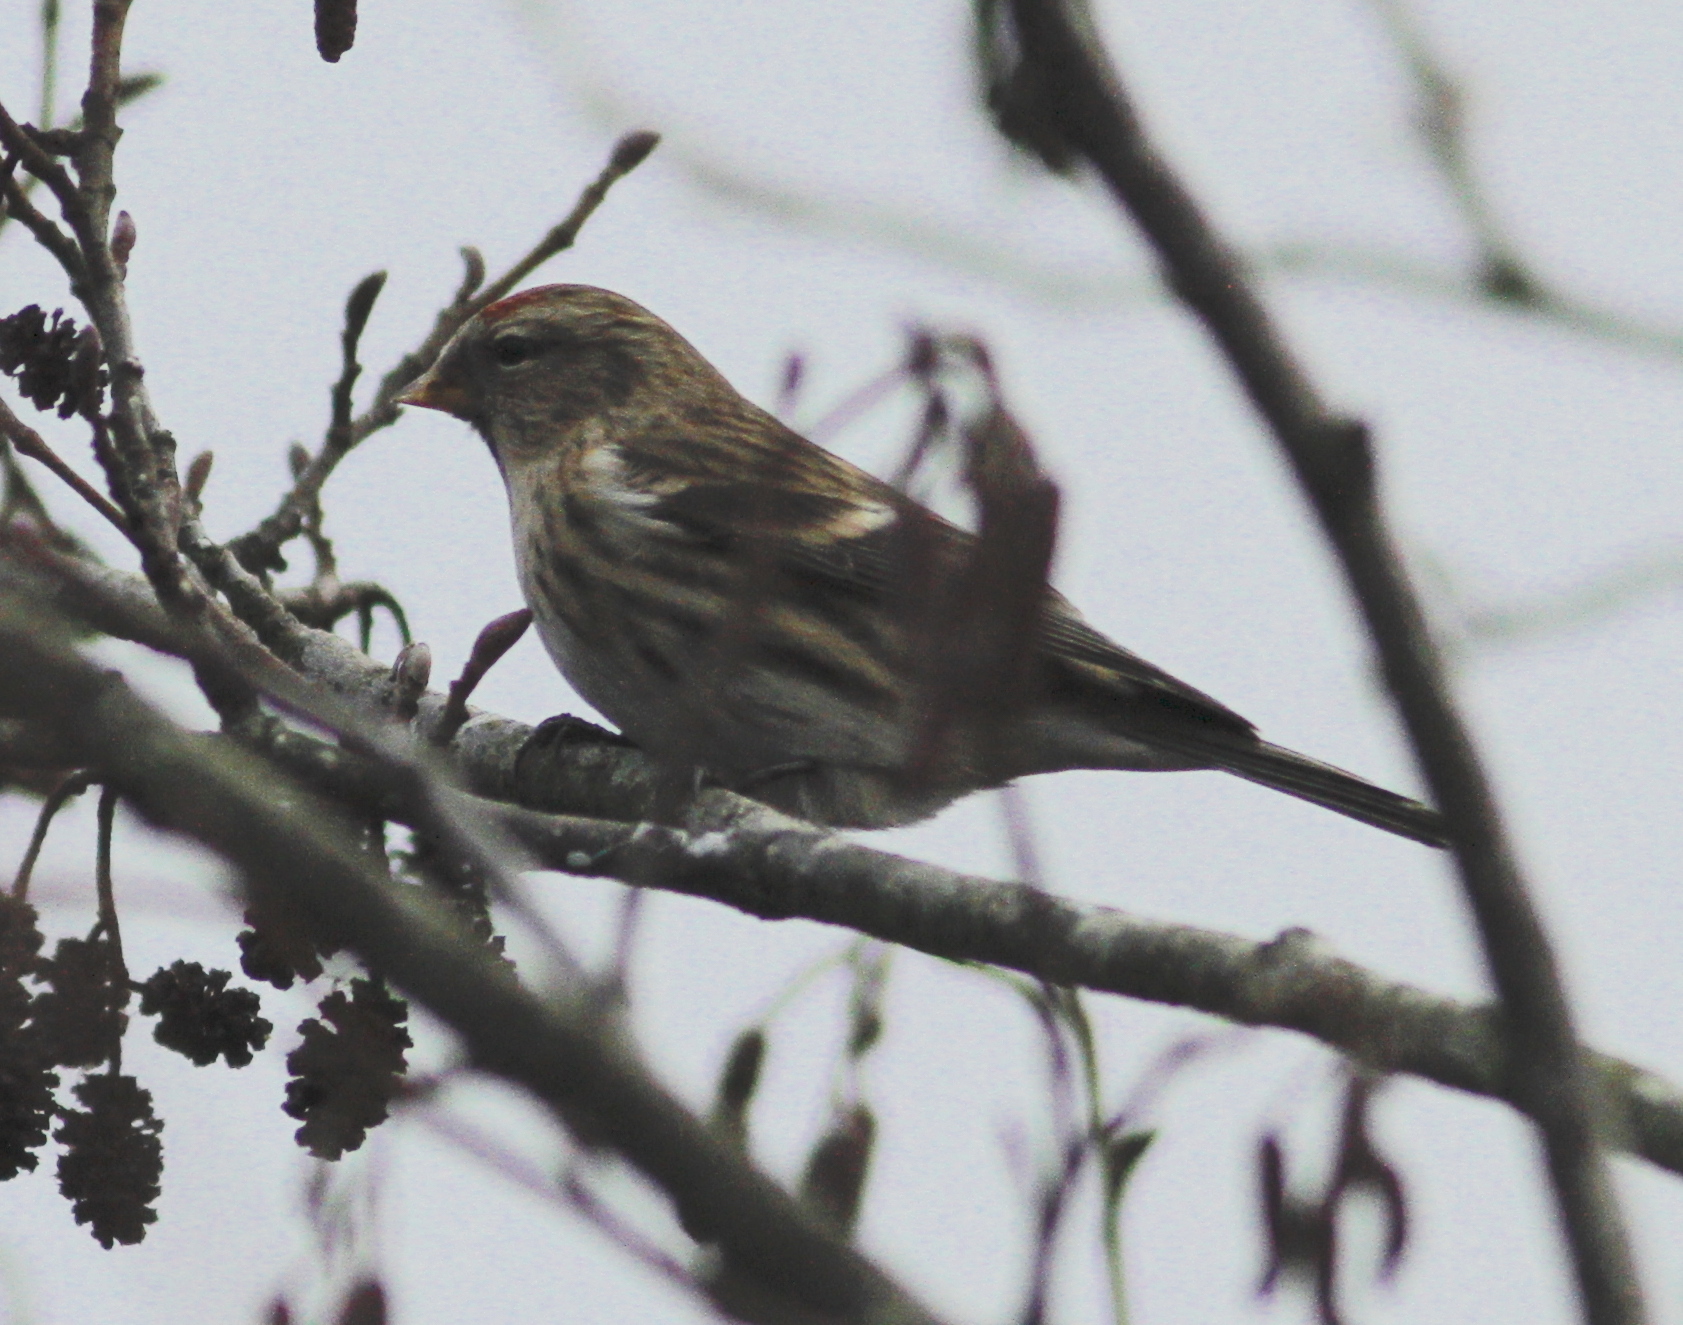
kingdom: Animalia
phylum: Chordata
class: Aves
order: Passeriformes
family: Fringillidae
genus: Acanthis
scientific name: Acanthis flammea
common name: Common redpoll
